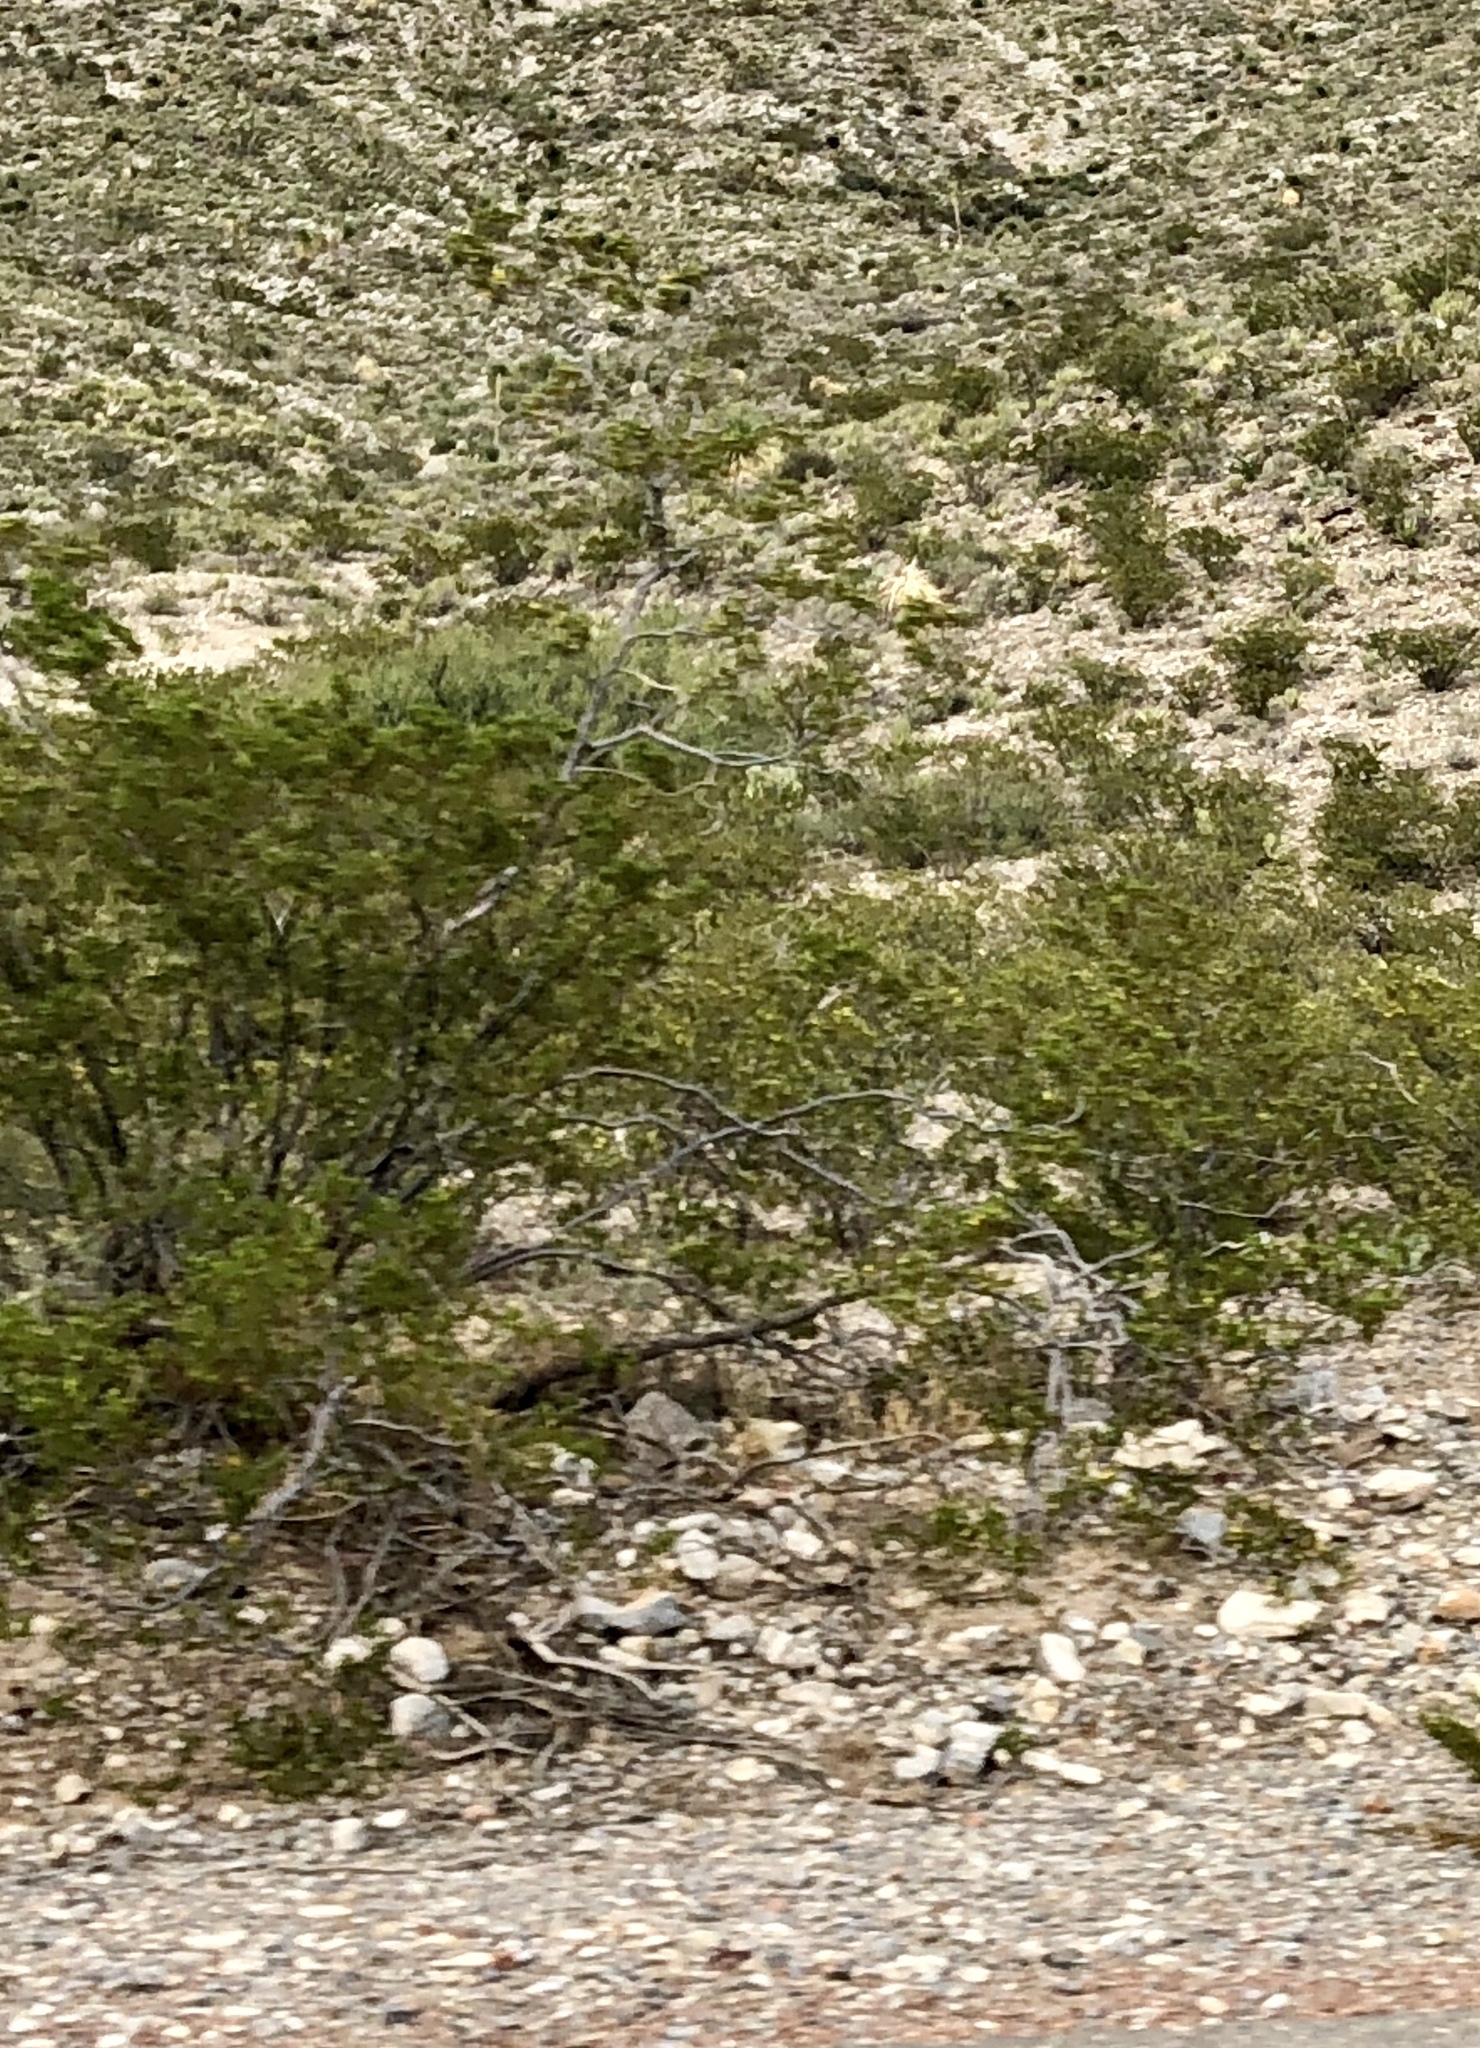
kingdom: Plantae
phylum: Tracheophyta
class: Magnoliopsida
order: Zygophyllales
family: Zygophyllaceae
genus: Larrea
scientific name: Larrea tridentata
